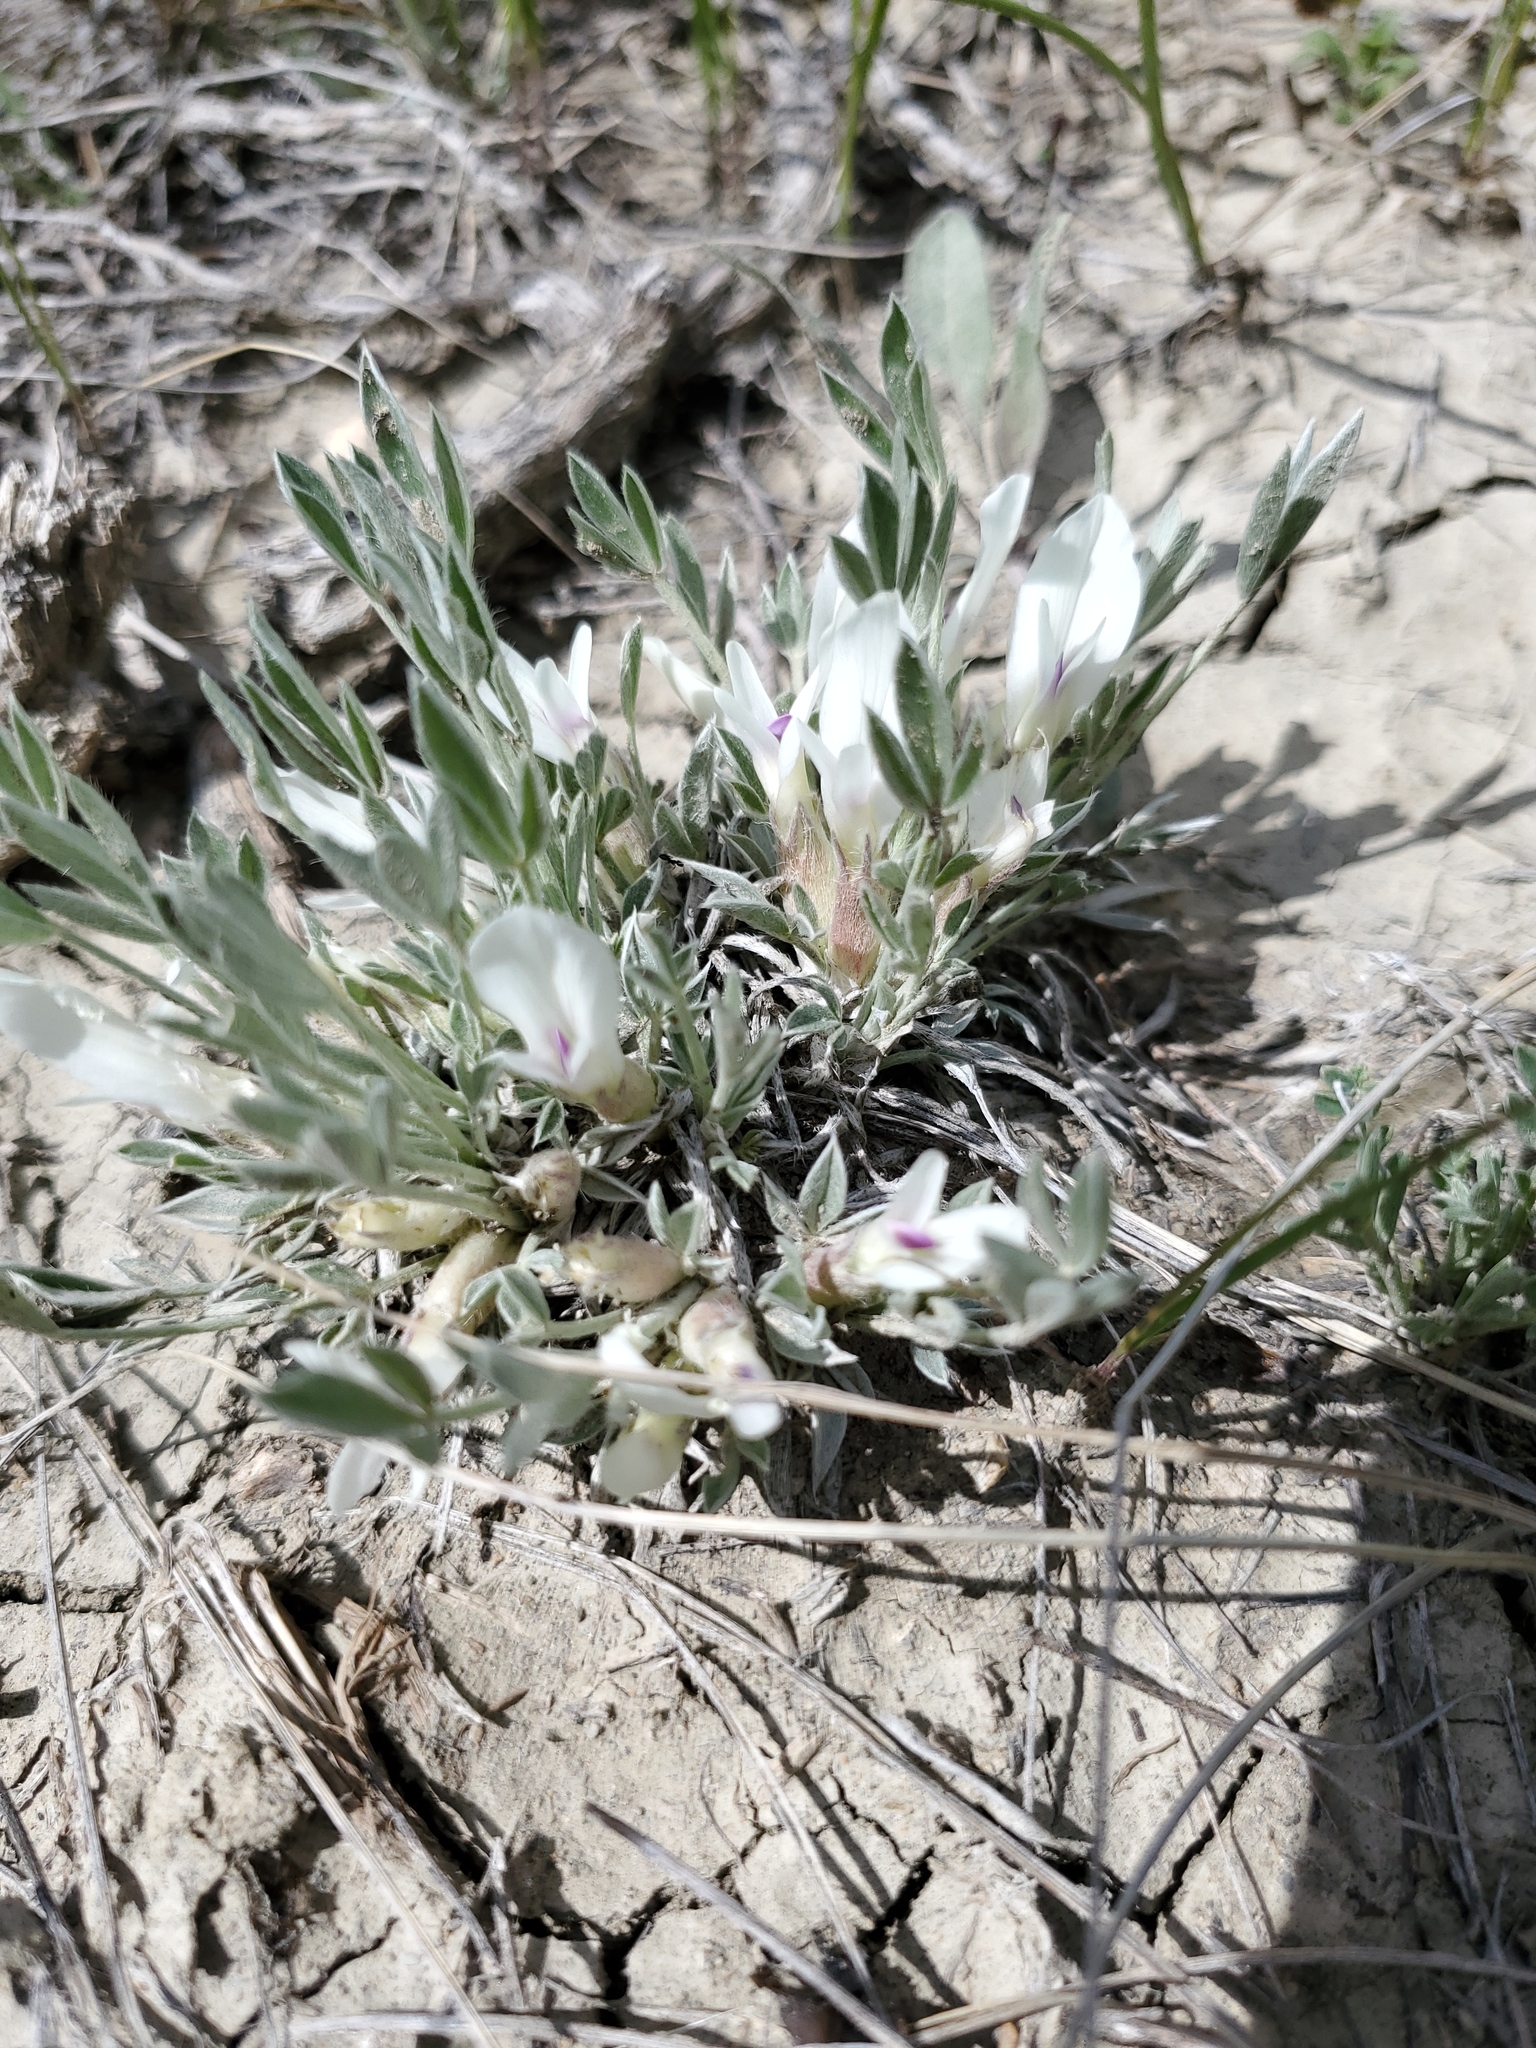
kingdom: Plantae
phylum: Tracheophyta
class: Magnoliopsida
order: Fabales
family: Fabaceae
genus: Astragalus
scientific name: Astragalus gilviflorus
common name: Cushion milk-vetch
